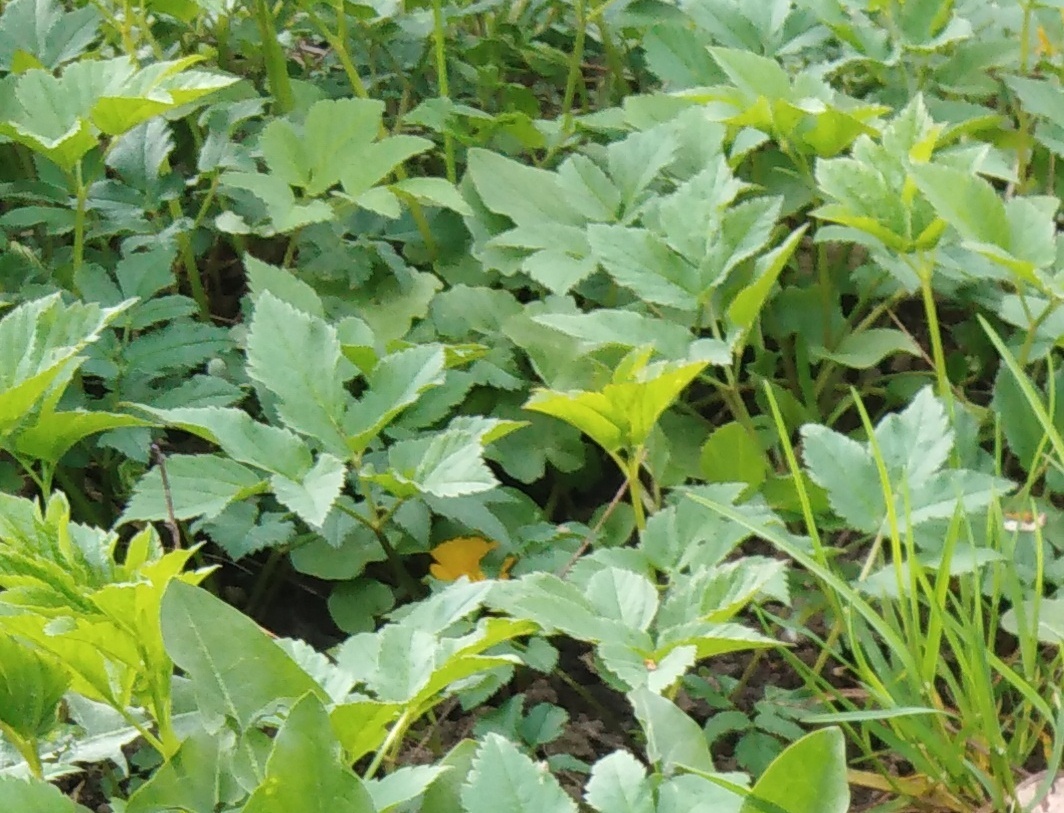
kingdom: Plantae
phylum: Tracheophyta
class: Magnoliopsida
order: Apiales
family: Apiaceae
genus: Aegopodium
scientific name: Aegopodium podagraria
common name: Ground-elder
